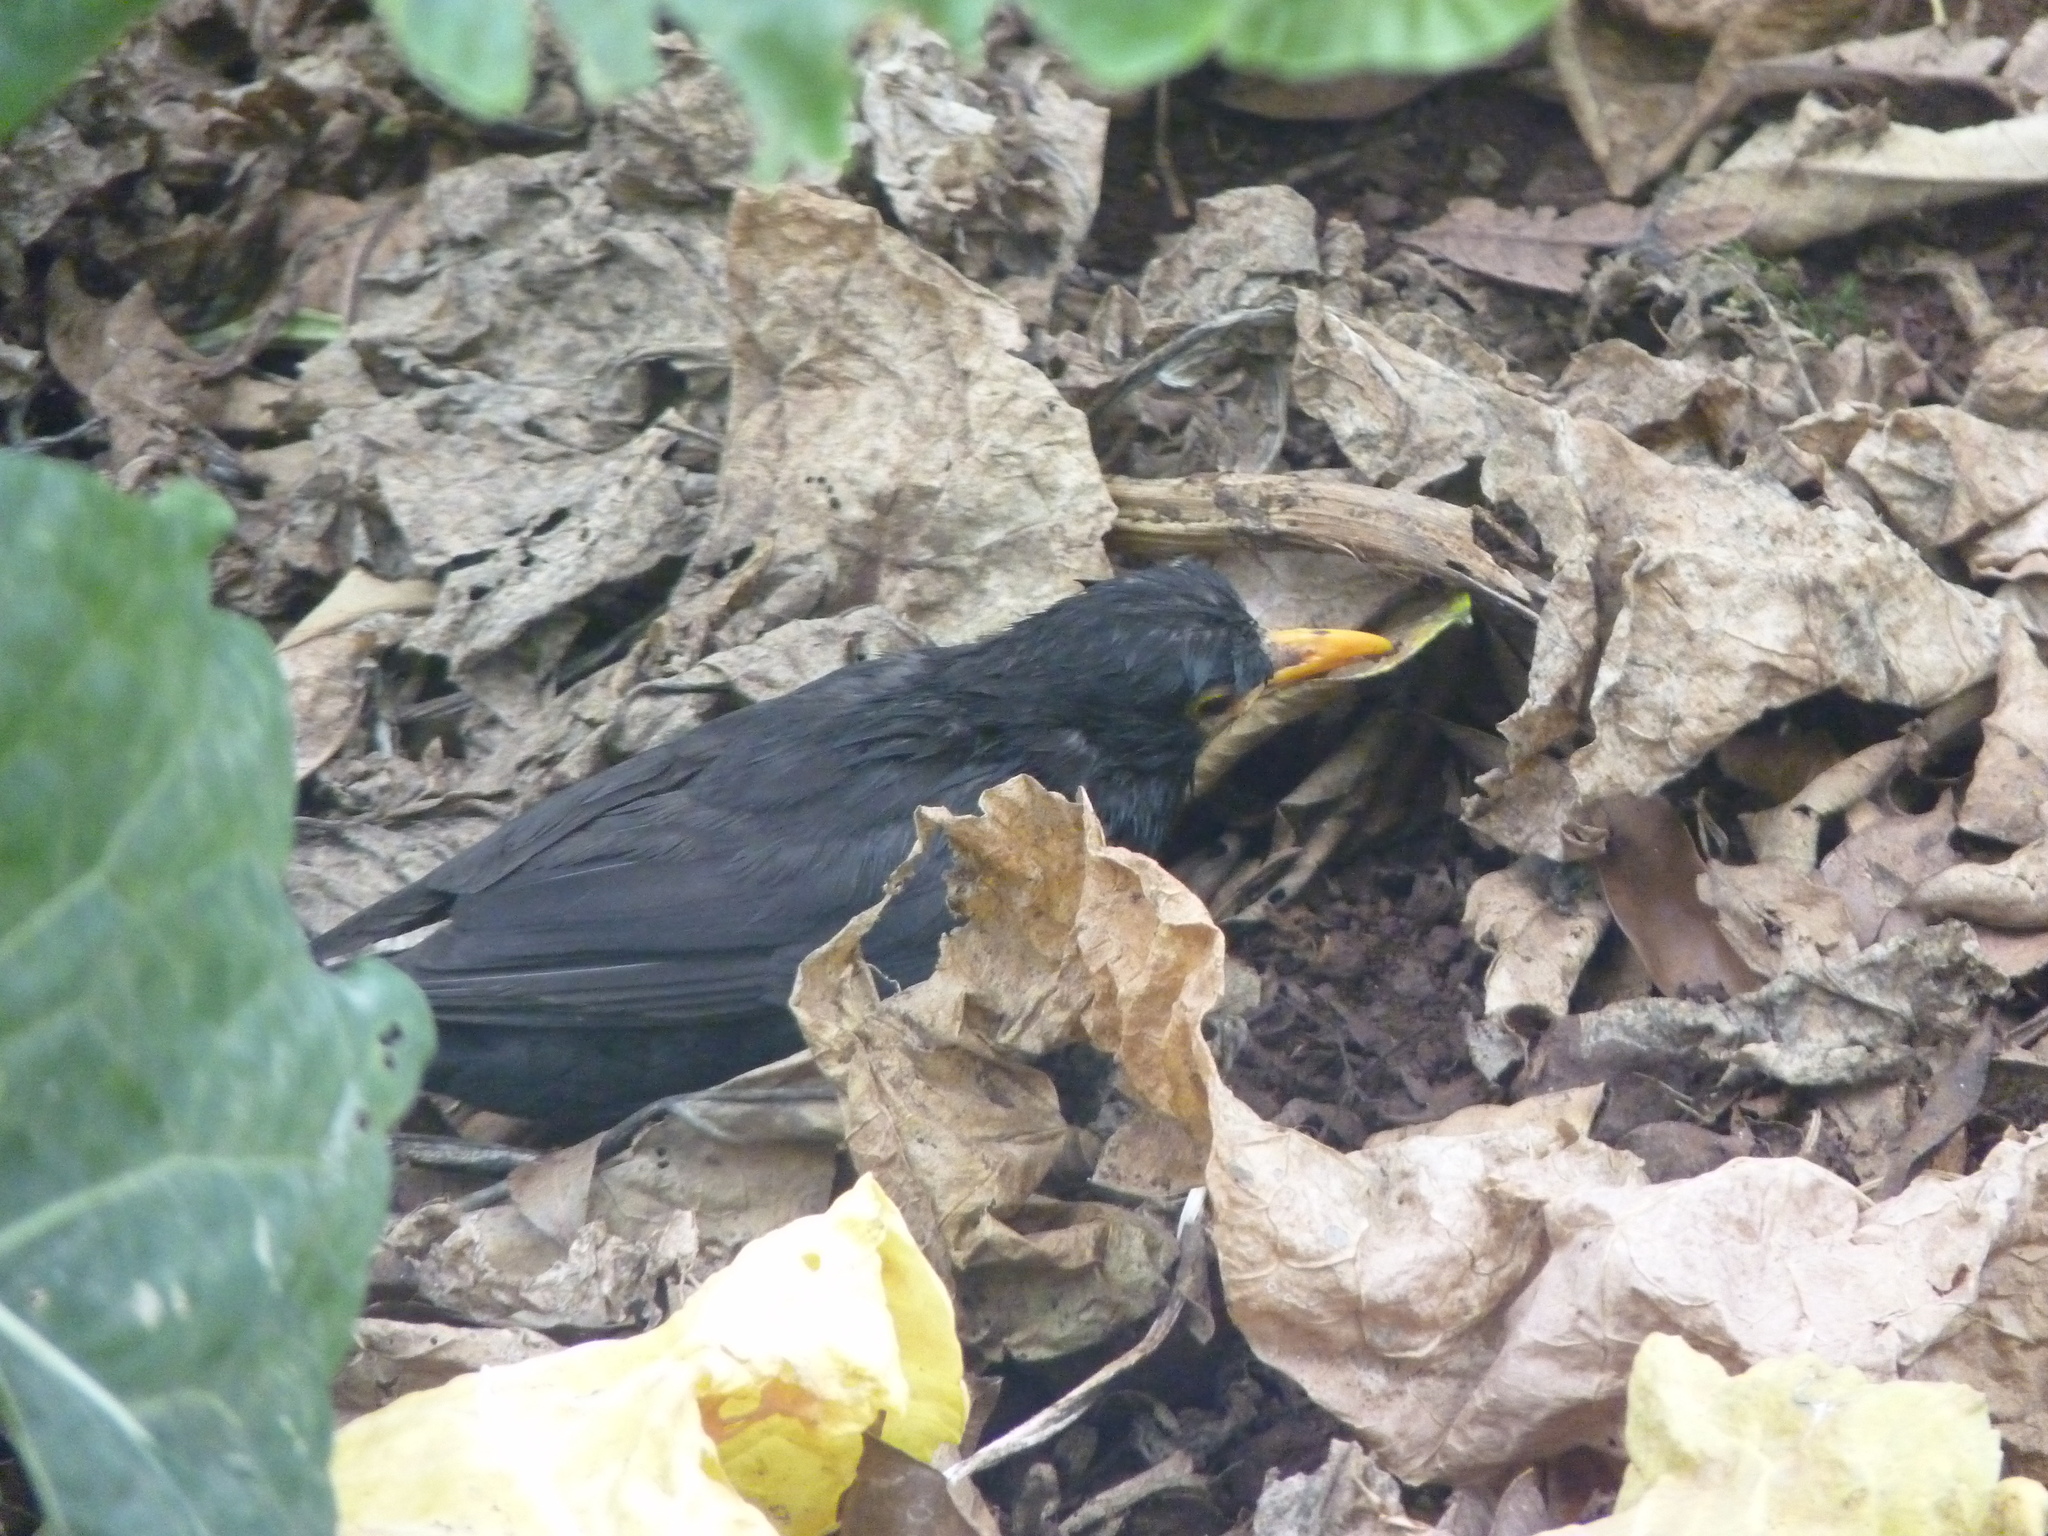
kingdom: Animalia
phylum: Chordata
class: Aves
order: Passeriformes
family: Turdidae
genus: Turdus
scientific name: Turdus merula
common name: Common blackbird
